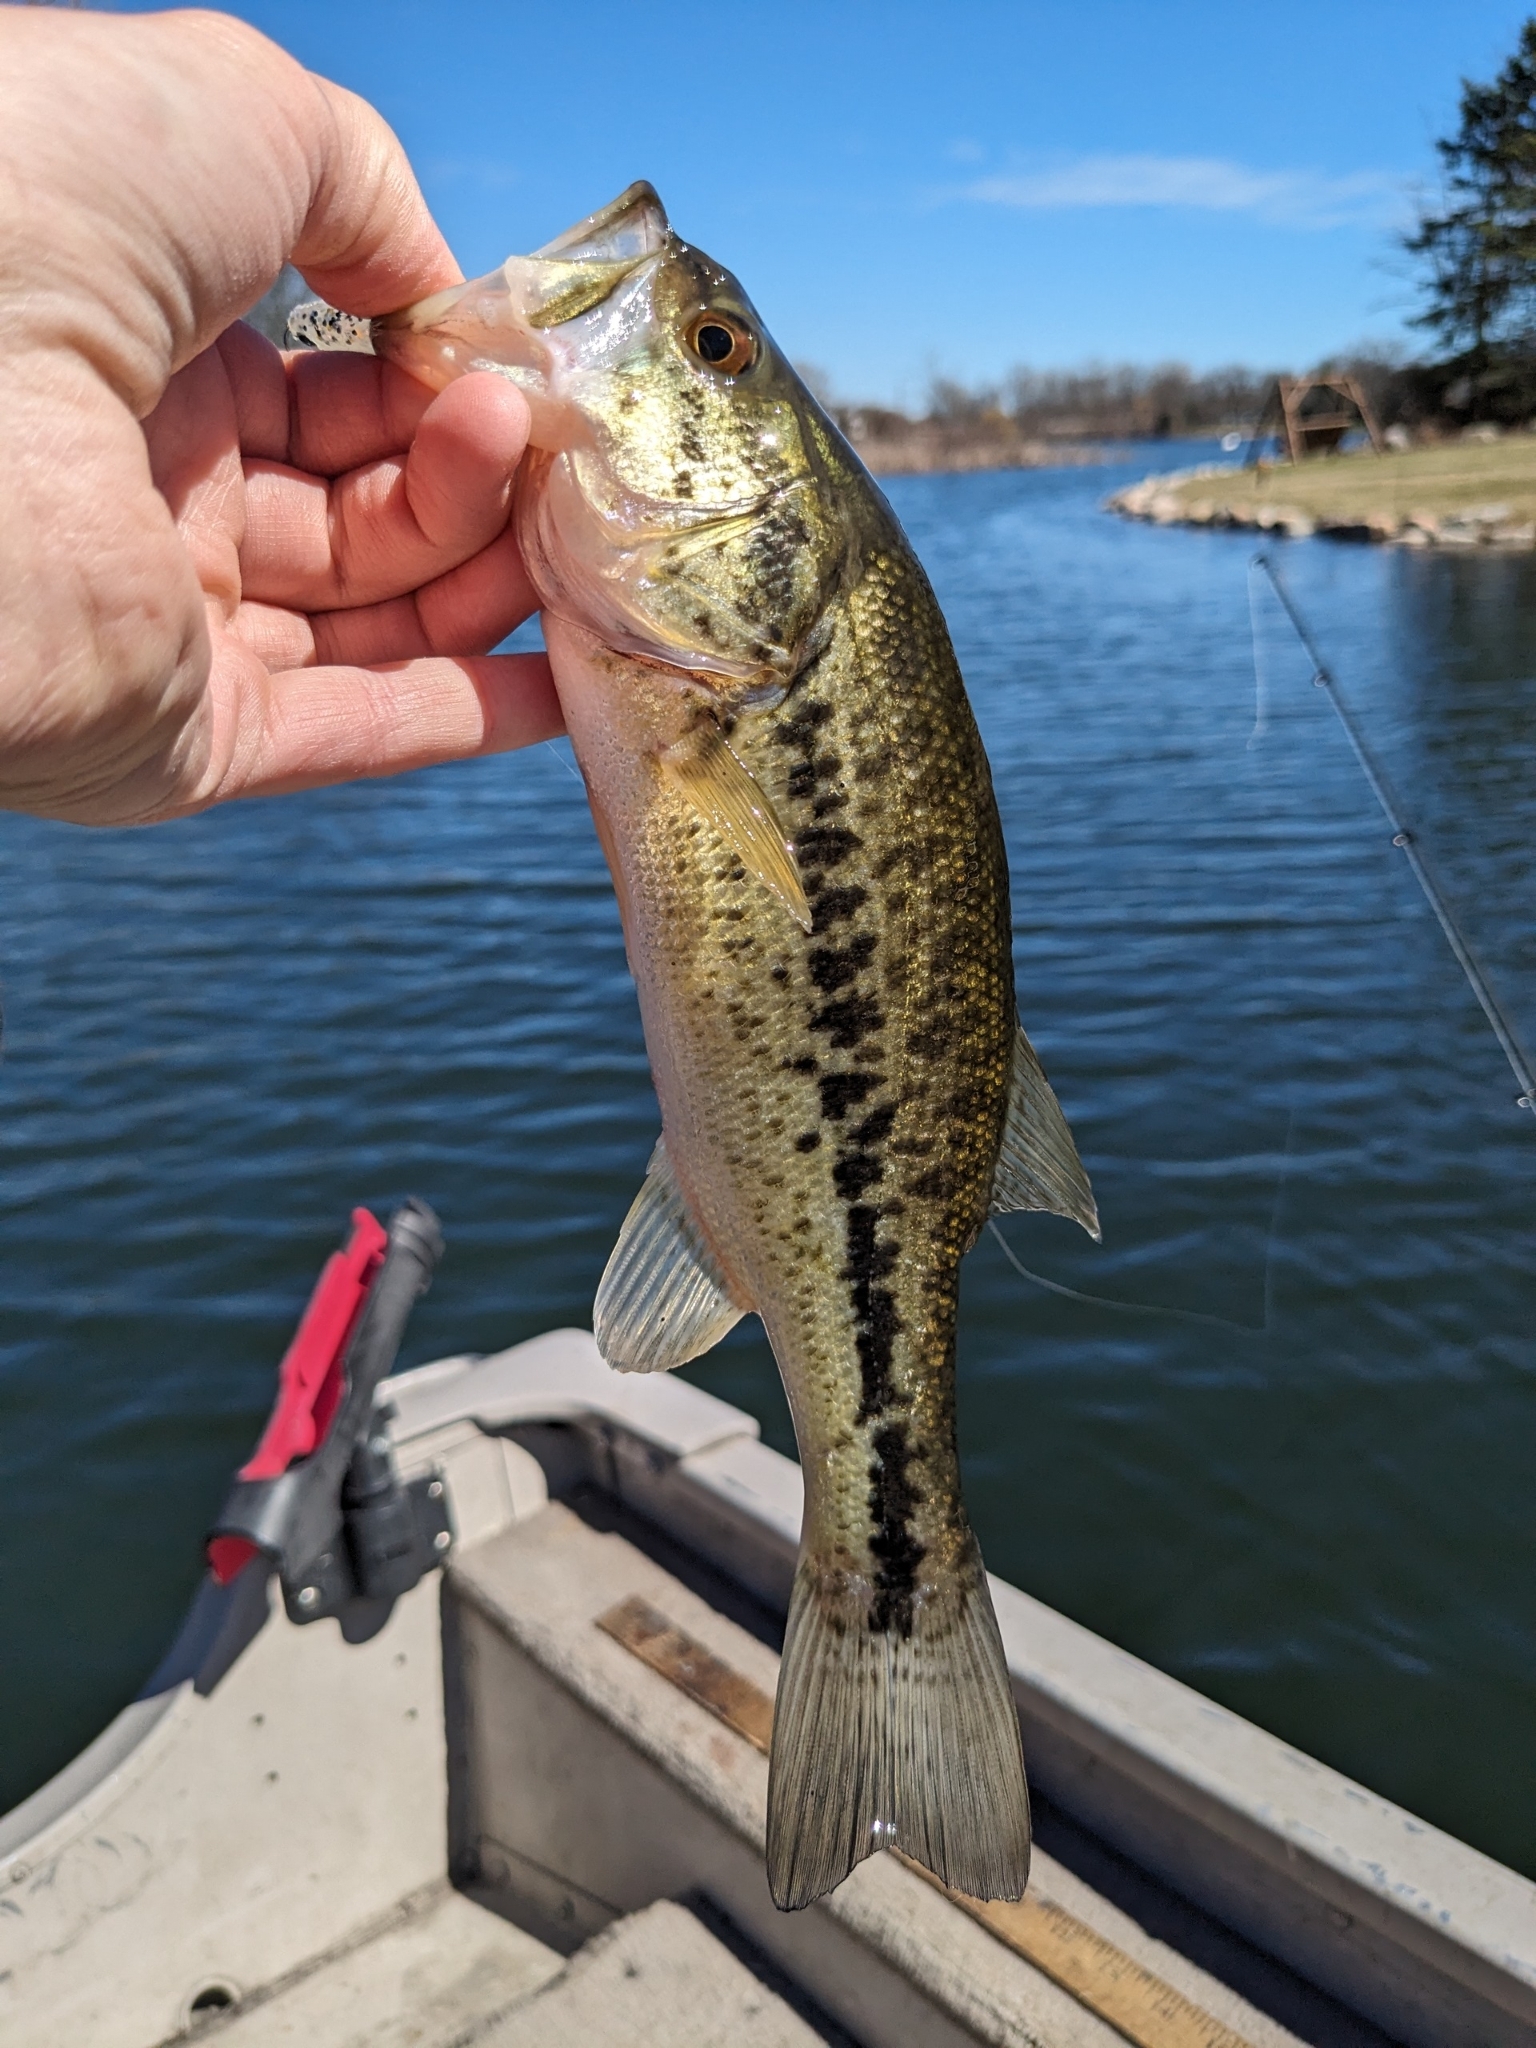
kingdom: Animalia
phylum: Chordata
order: Perciformes
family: Centrarchidae
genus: Micropterus
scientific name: Micropterus
